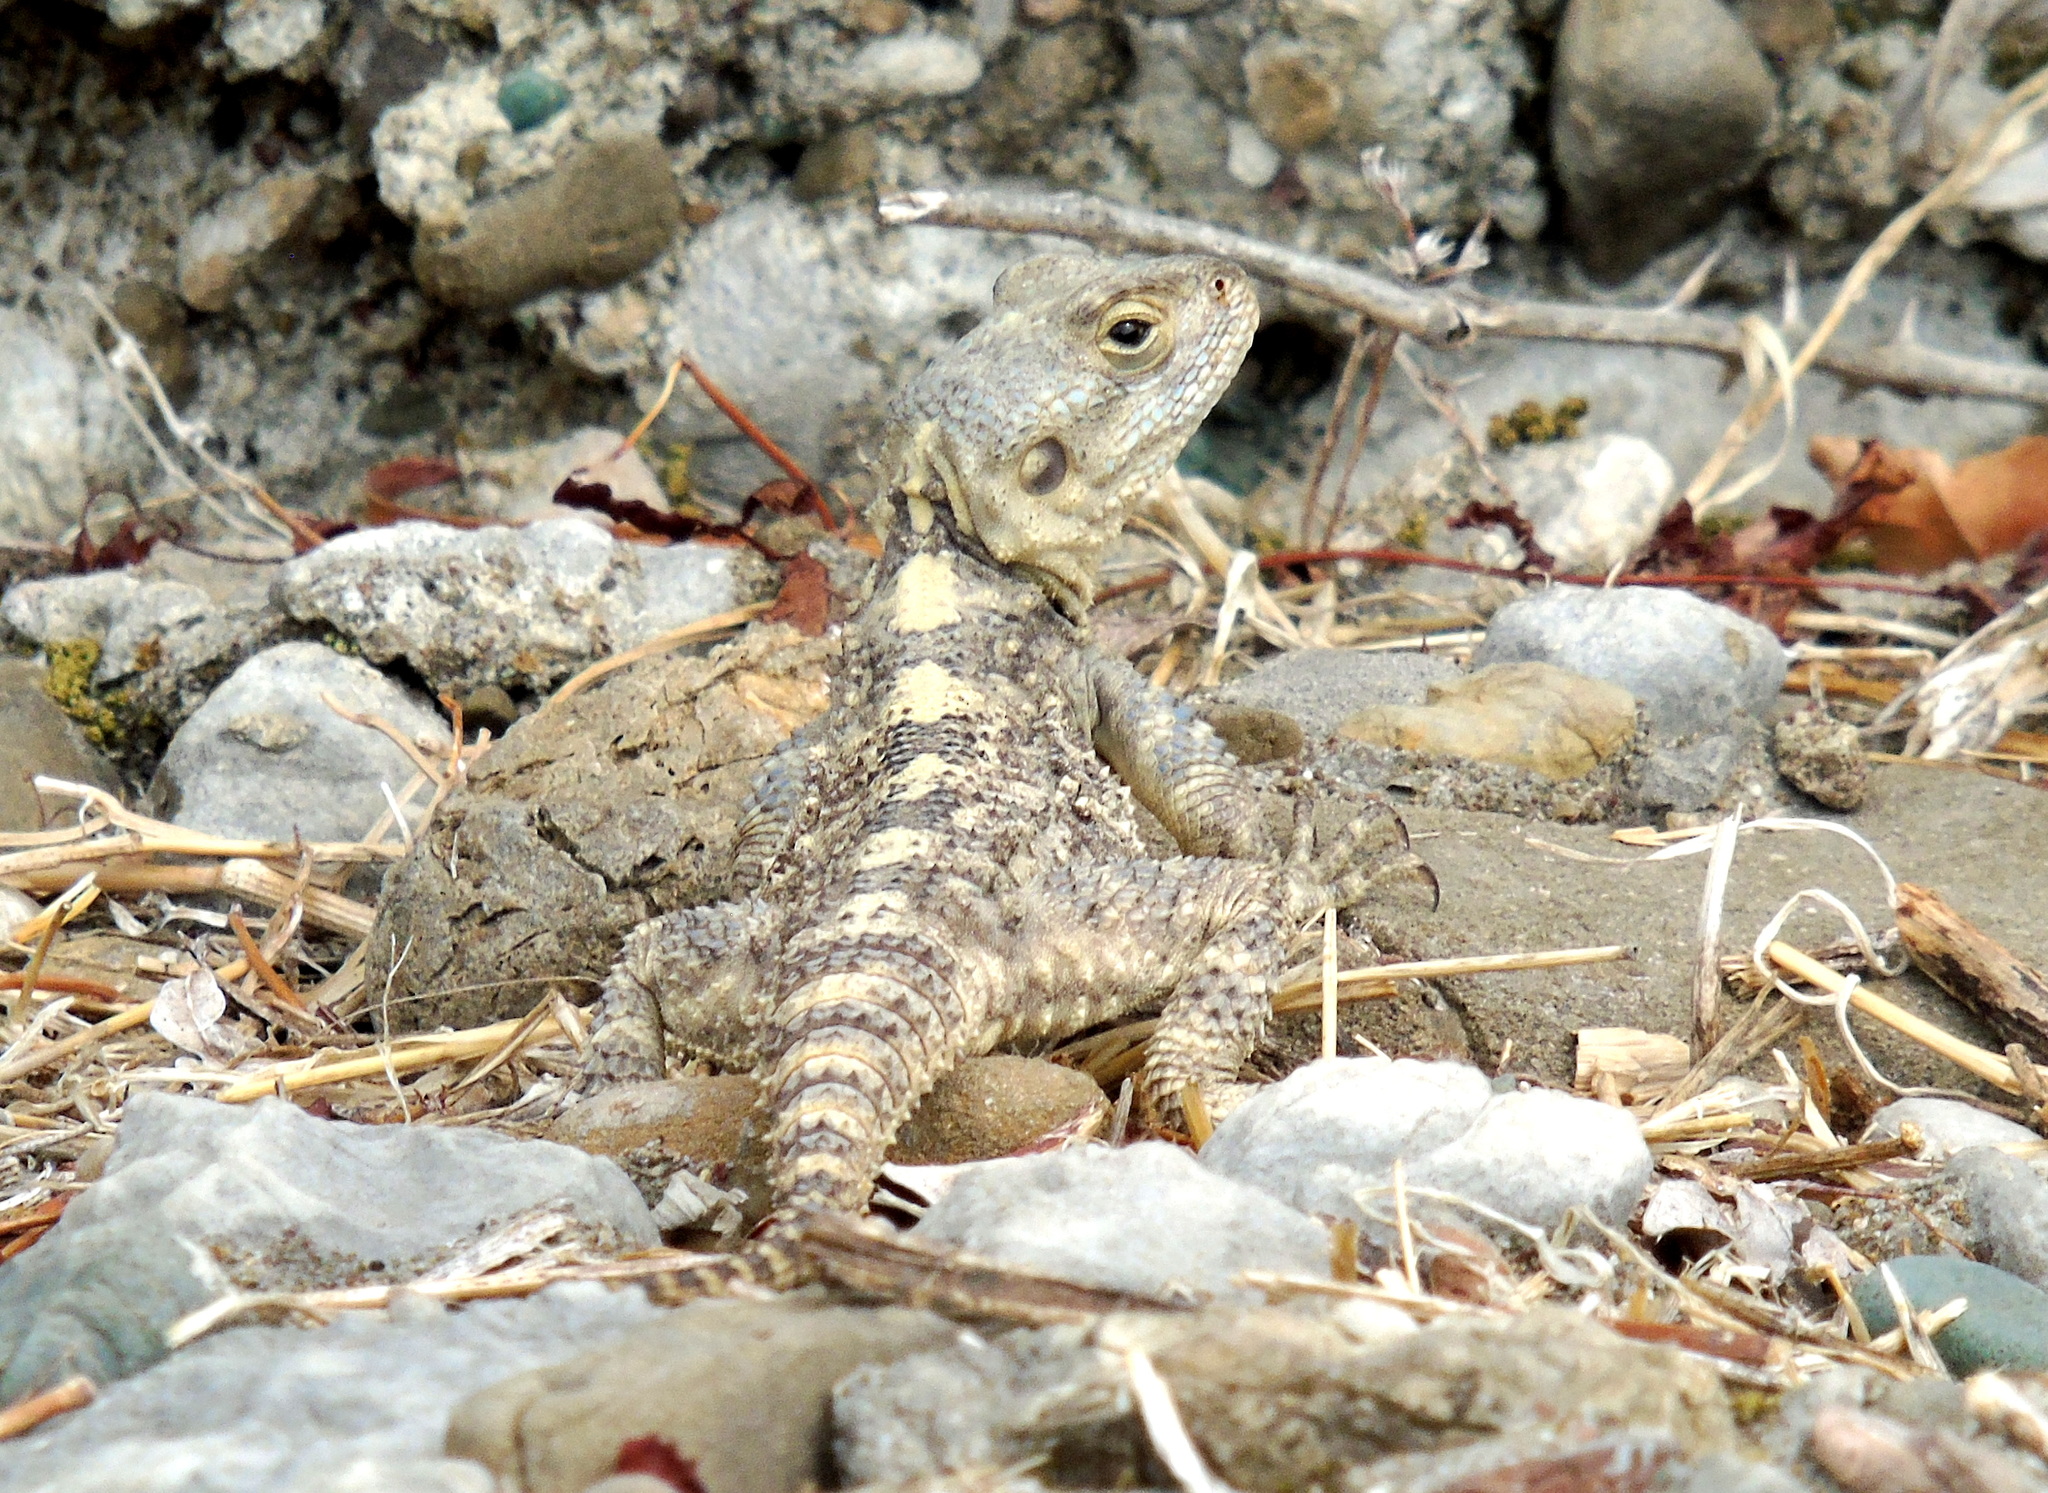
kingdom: Animalia
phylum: Chordata
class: Squamata
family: Agamidae
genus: Stellagama
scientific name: Stellagama stellio
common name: Starred agama
